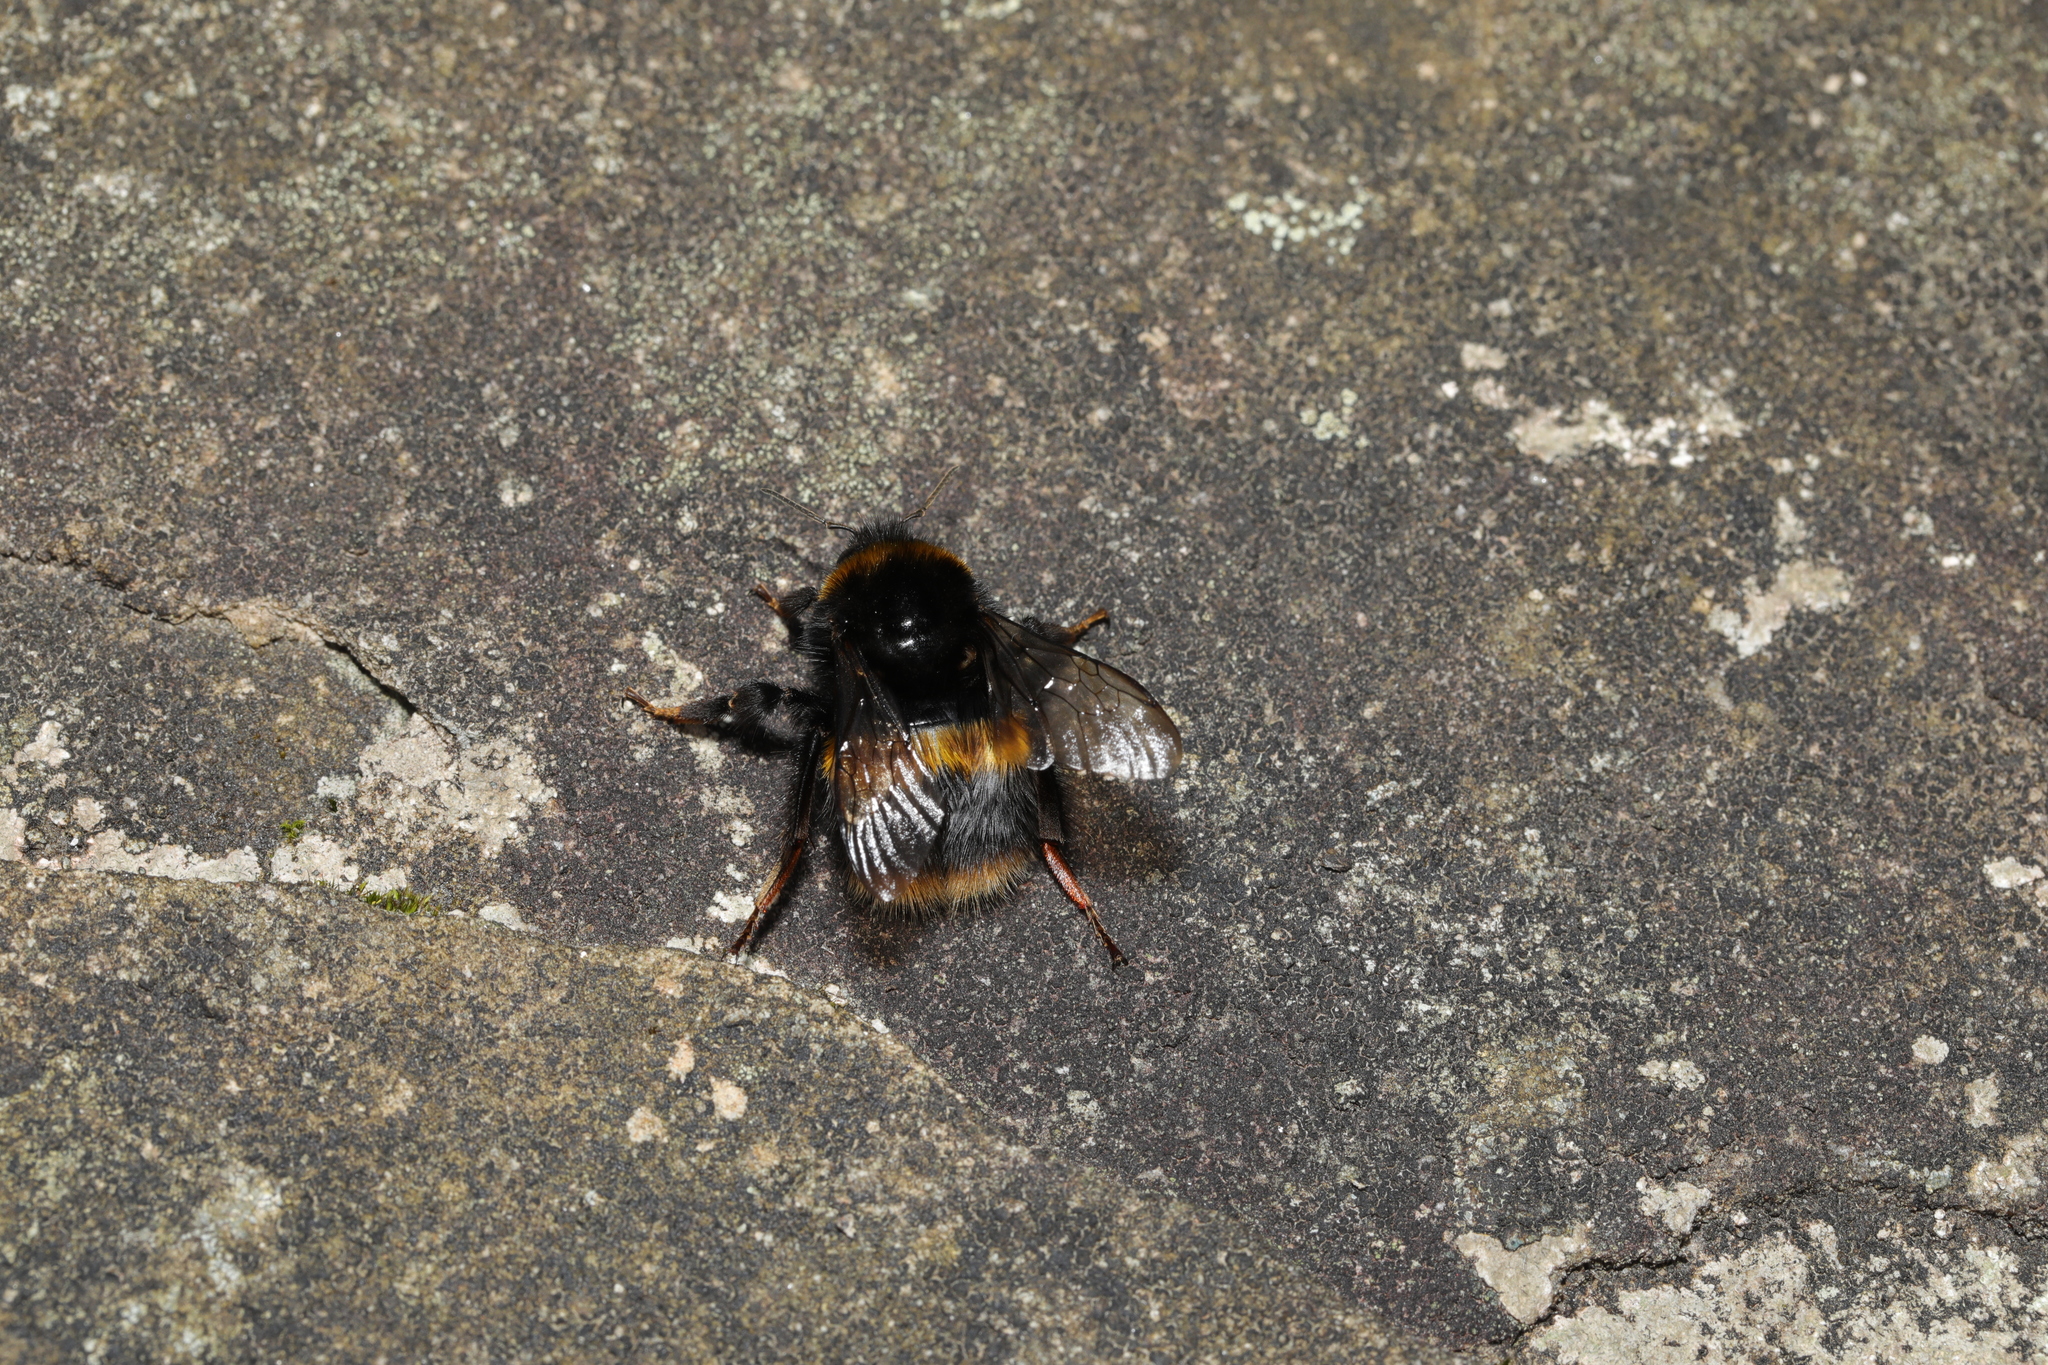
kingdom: Animalia
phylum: Arthropoda
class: Insecta
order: Hymenoptera
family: Apidae
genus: Bombus
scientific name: Bombus terrestris
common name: Buff-tailed bumblebee
